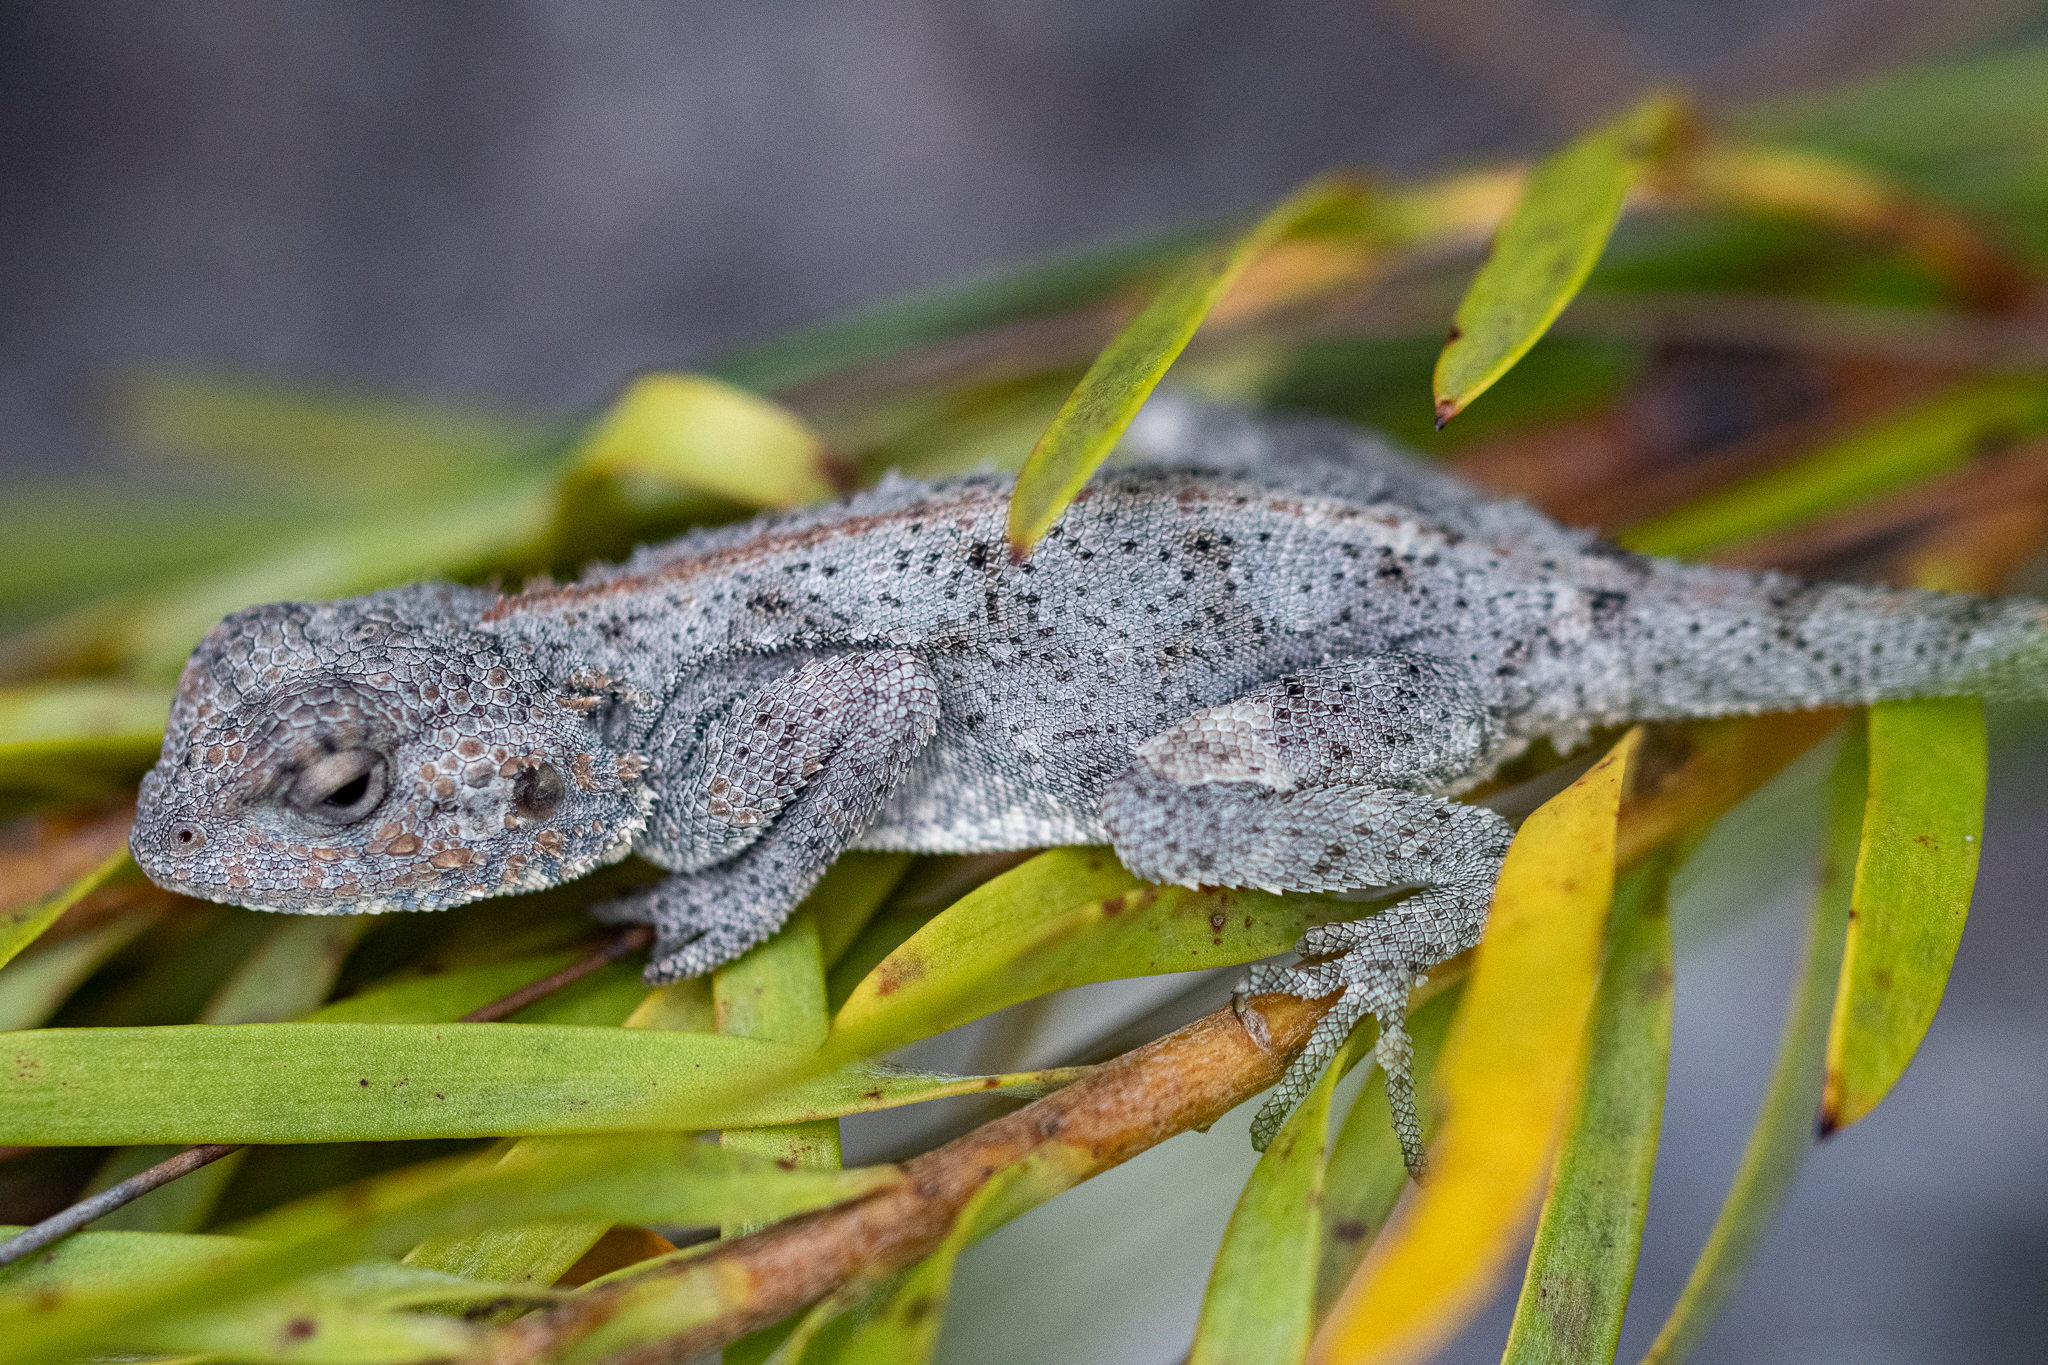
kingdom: Animalia
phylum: Chordata
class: Squamata
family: Agamidae
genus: Agama
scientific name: Agama atra
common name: Southern african rock agama
